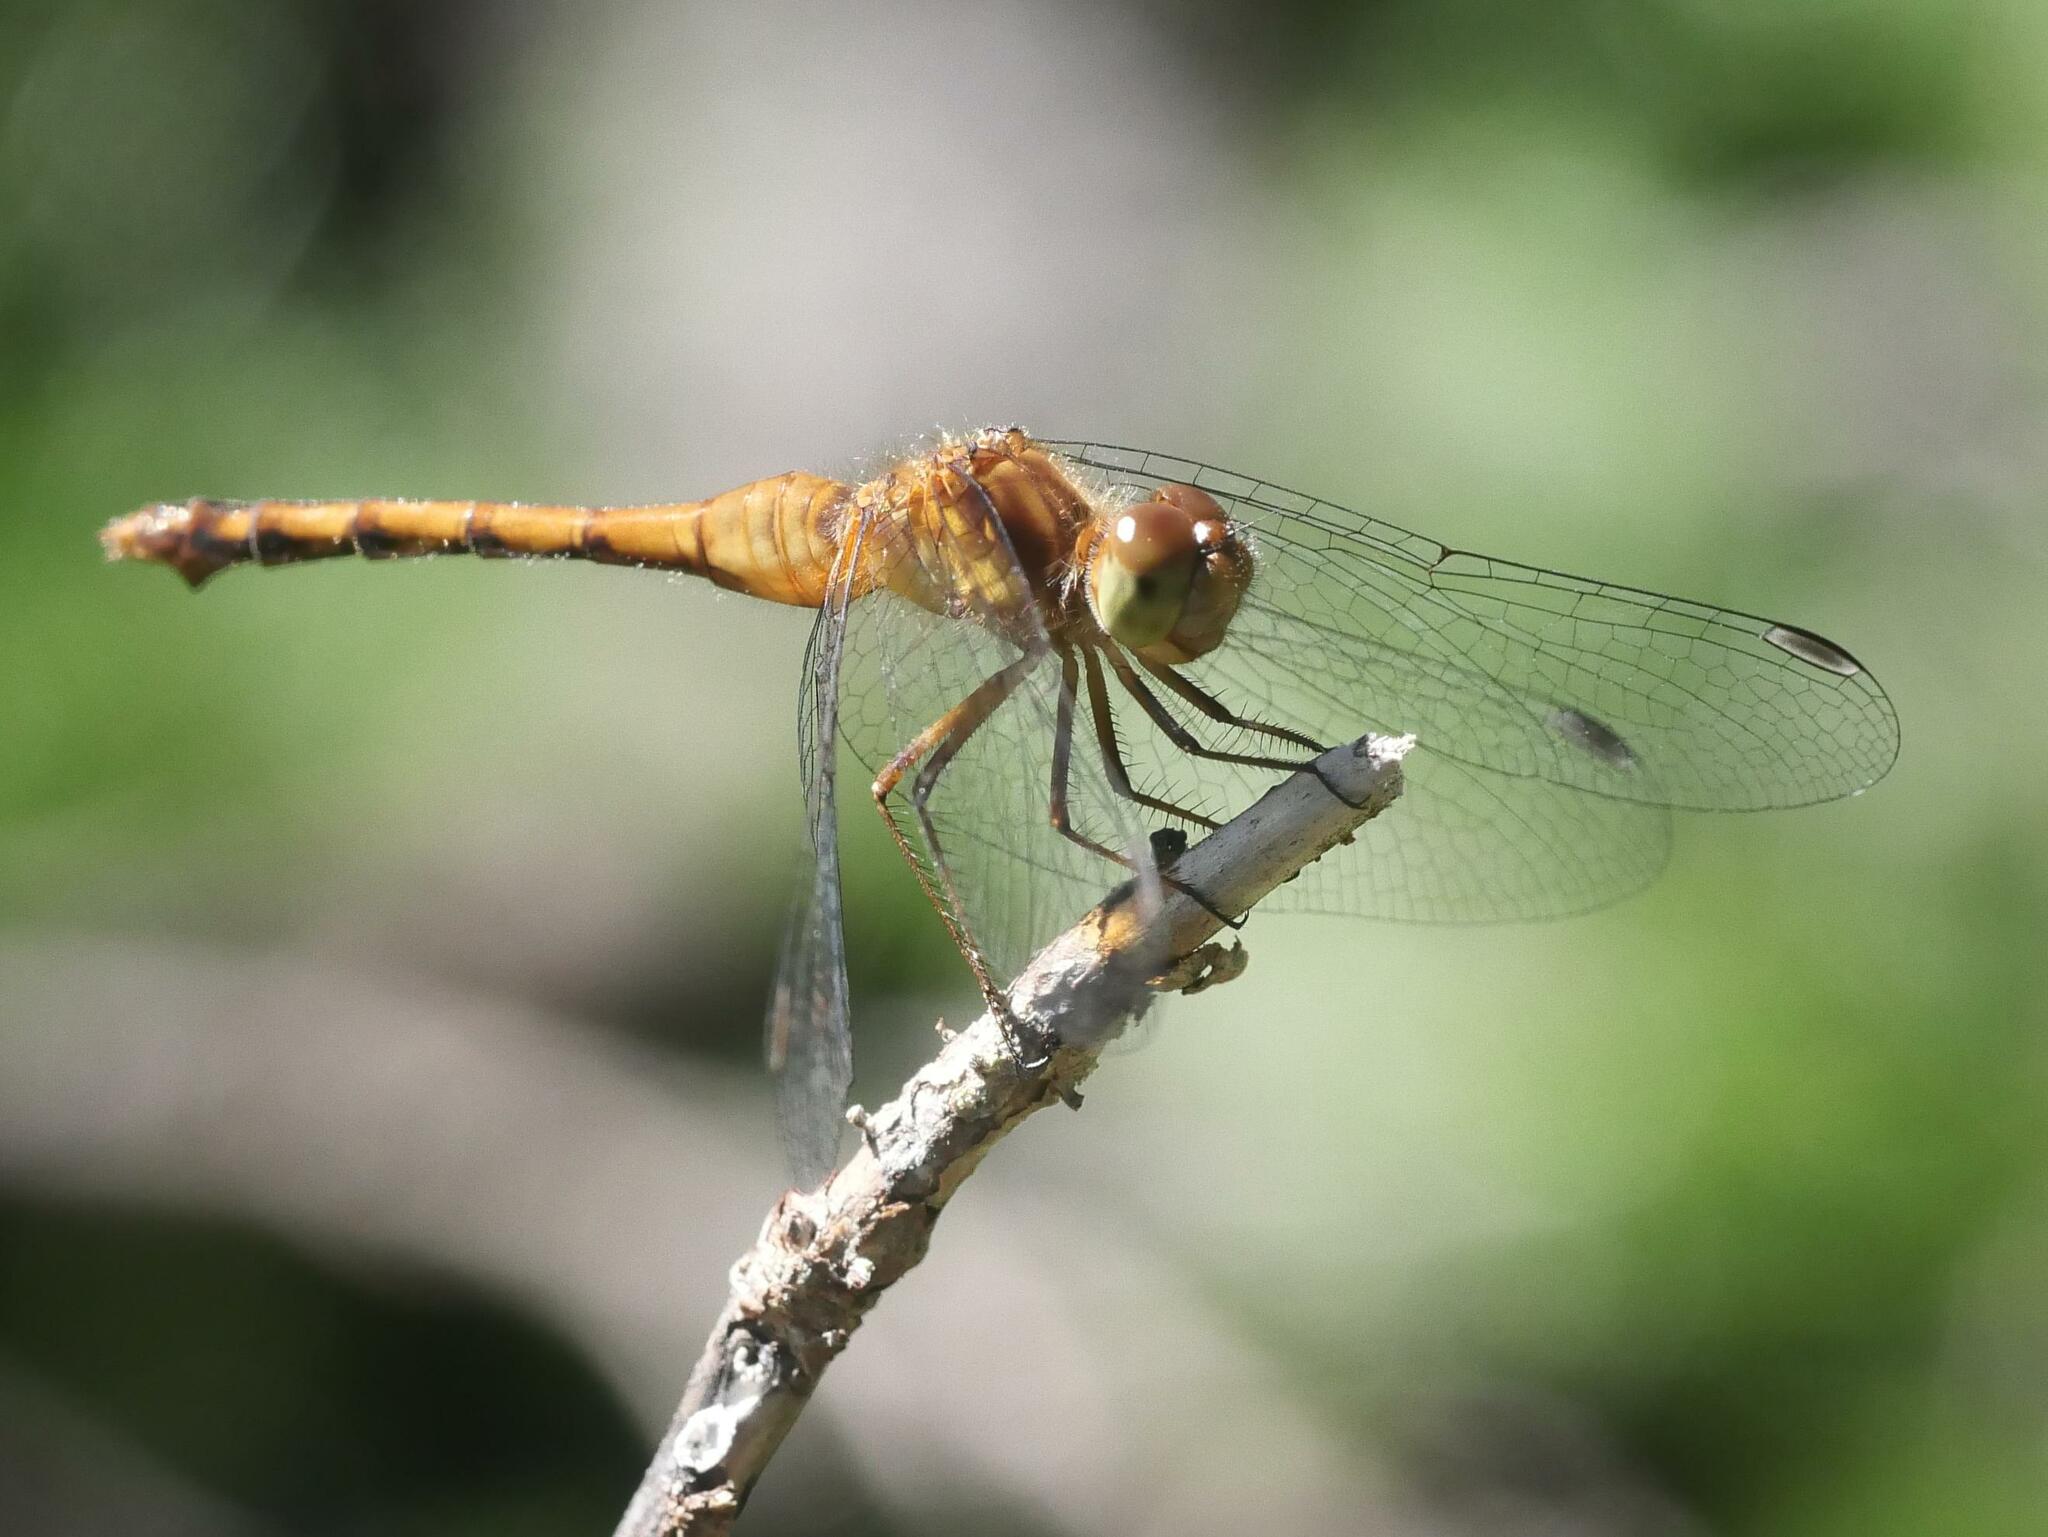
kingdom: Animalia
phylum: Arthropoda
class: Insecta
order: Odonata
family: Libellulidae
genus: Sympetrum
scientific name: Sympetrum vicinum
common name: Autumn meadowhawk
